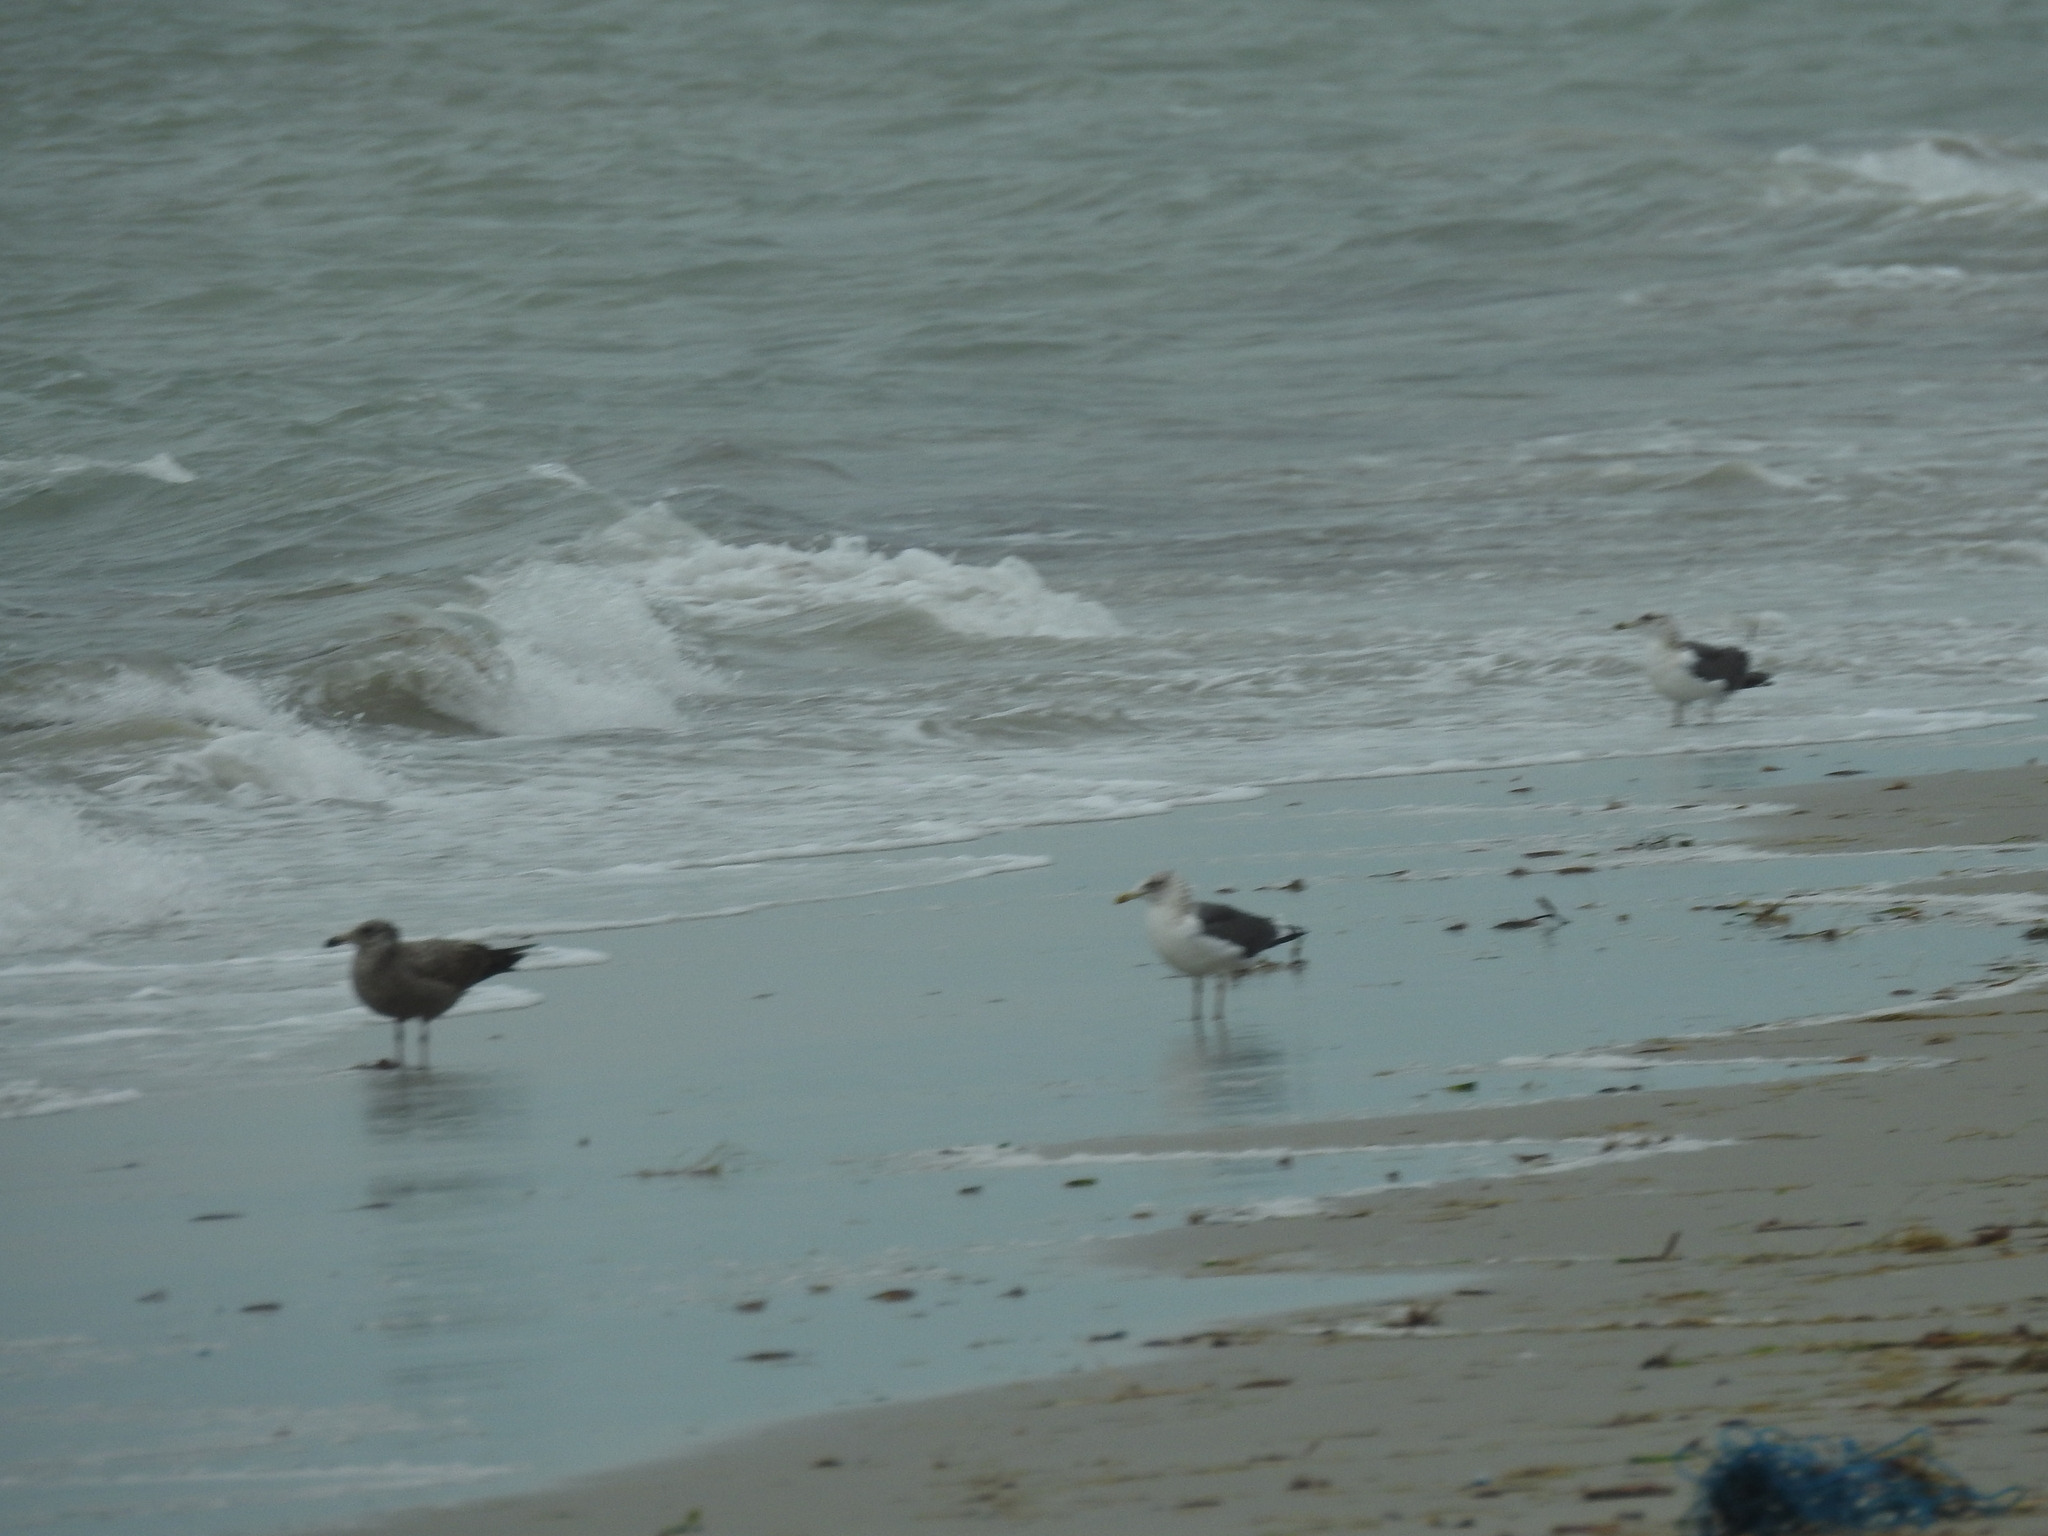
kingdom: Animalia
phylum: Chordata
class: Aves
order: Charadriiformes
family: Laridae
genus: Larus
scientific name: Larus fuscus
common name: Lesser black-backed gull
